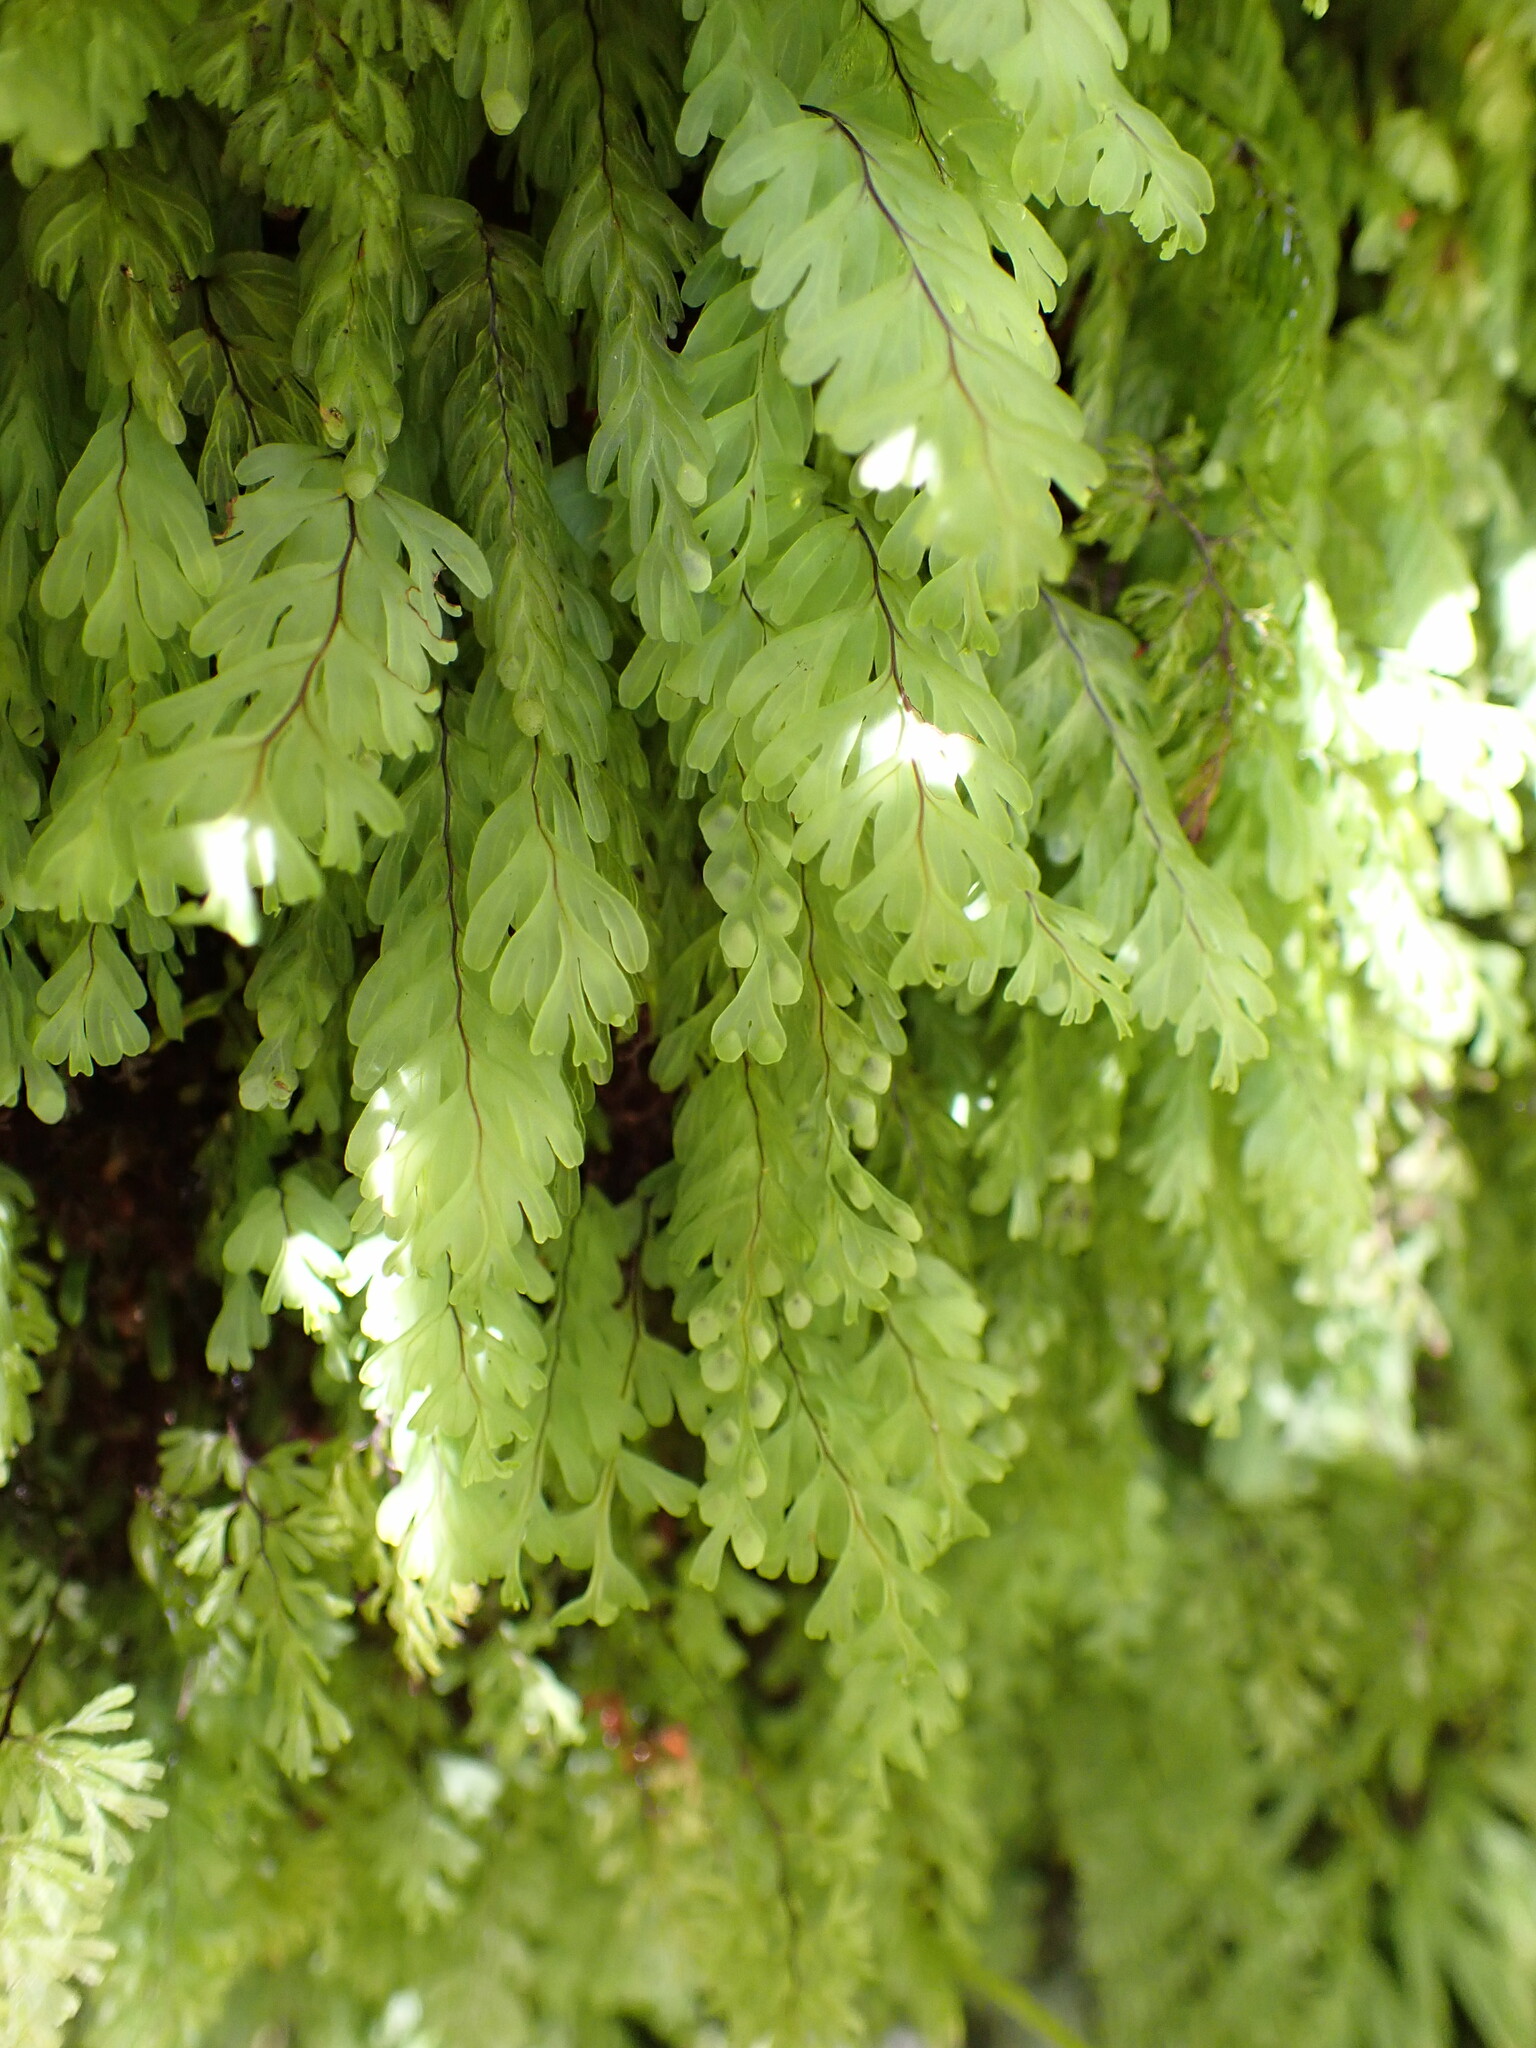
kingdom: Plantae
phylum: Tracheophyta
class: Polypodiopsida
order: Hymenophyllales
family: Hymenophyllaceae
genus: Hymenophyllum
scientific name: Hymenophyllum rarum
